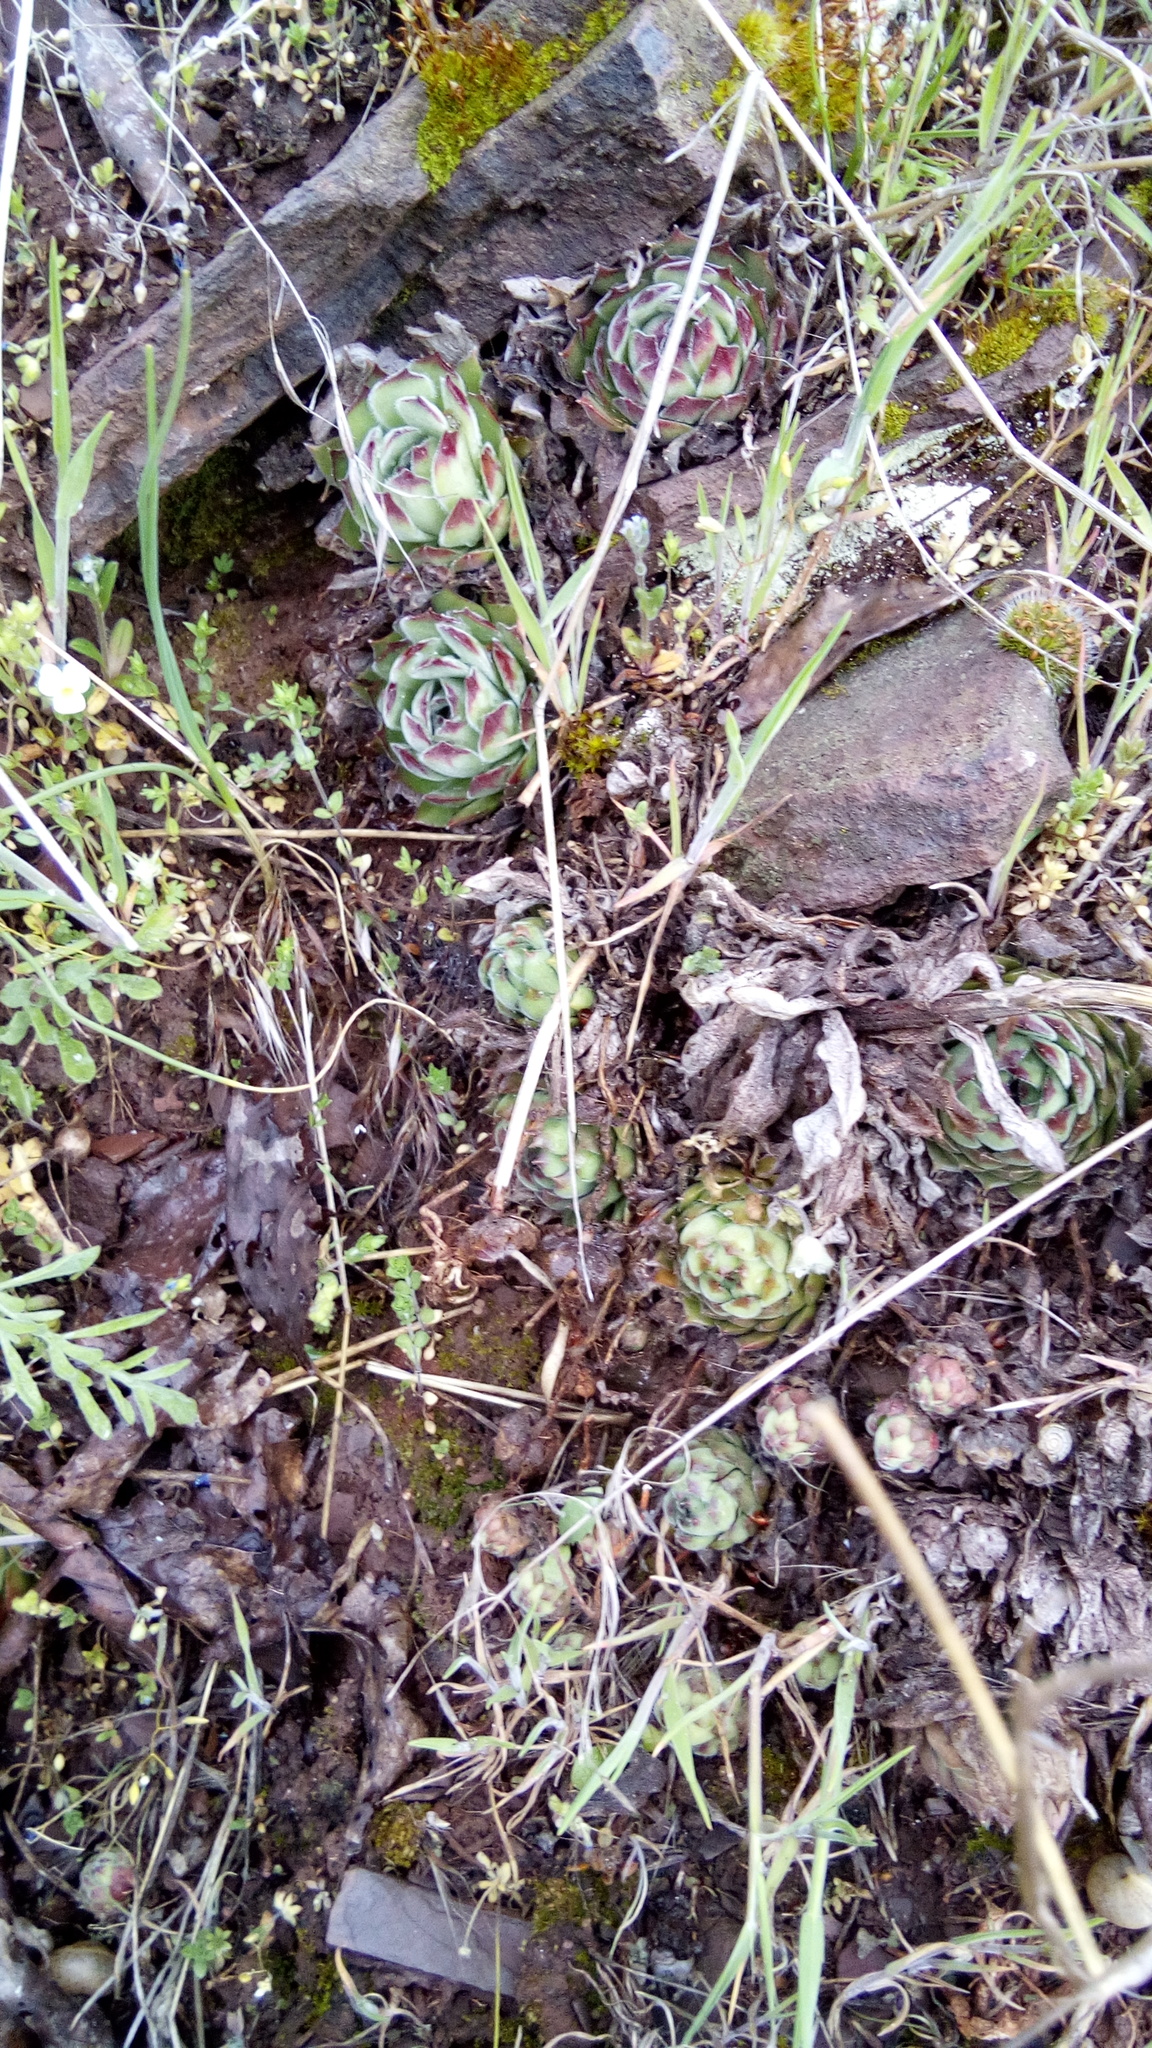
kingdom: Plantae
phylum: Tracheophyta
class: Magnoliopsida
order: Saxifragales
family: Crassulaceae
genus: Sempervivum
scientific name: Sempervivum ruthenicum
